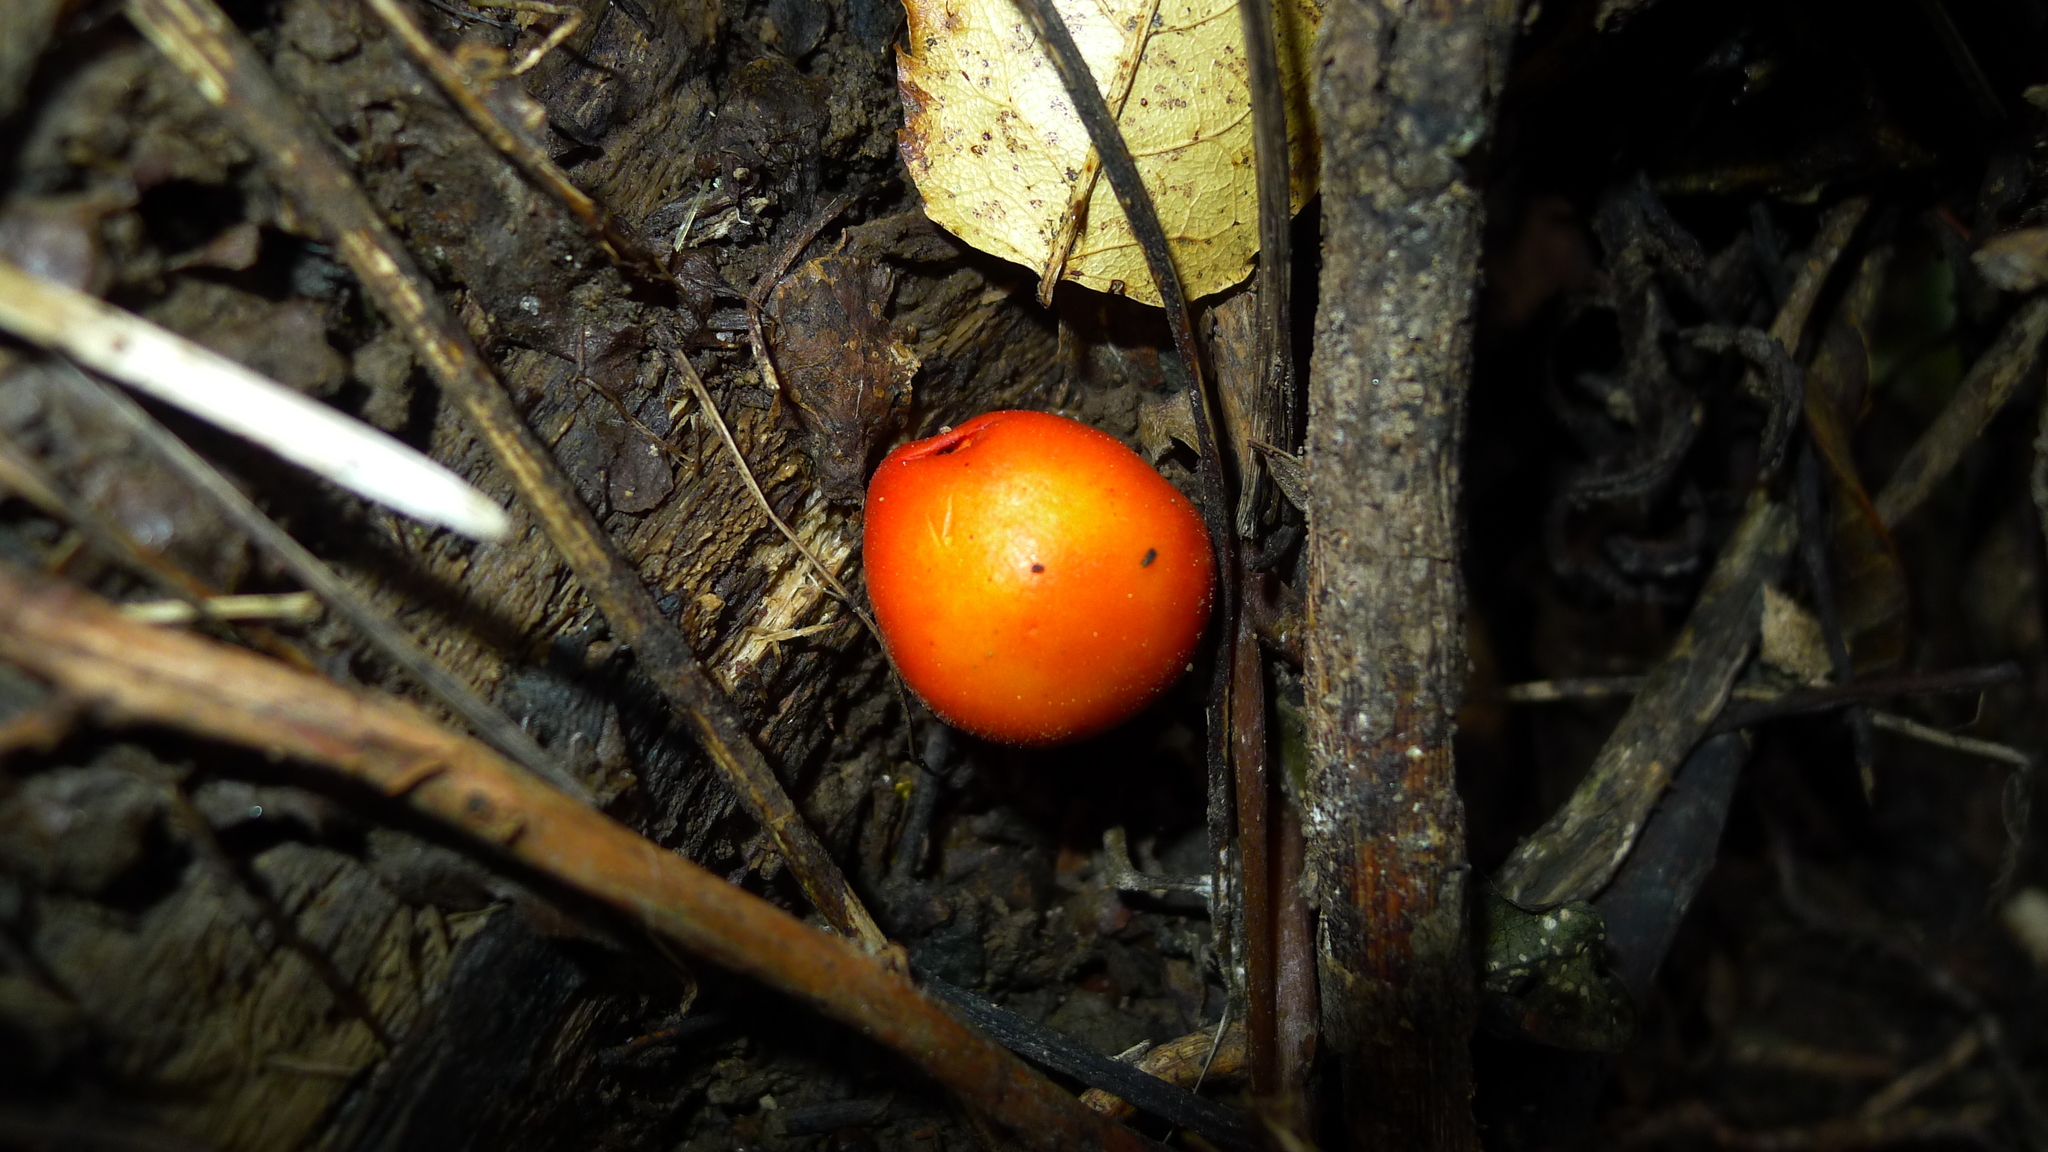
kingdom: Fungi
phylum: Basidiomycota
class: Agaricomycetes
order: Agaricales
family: Strophariaceae
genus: Leratiomyces
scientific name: Leratiomyces erythrocephalus
